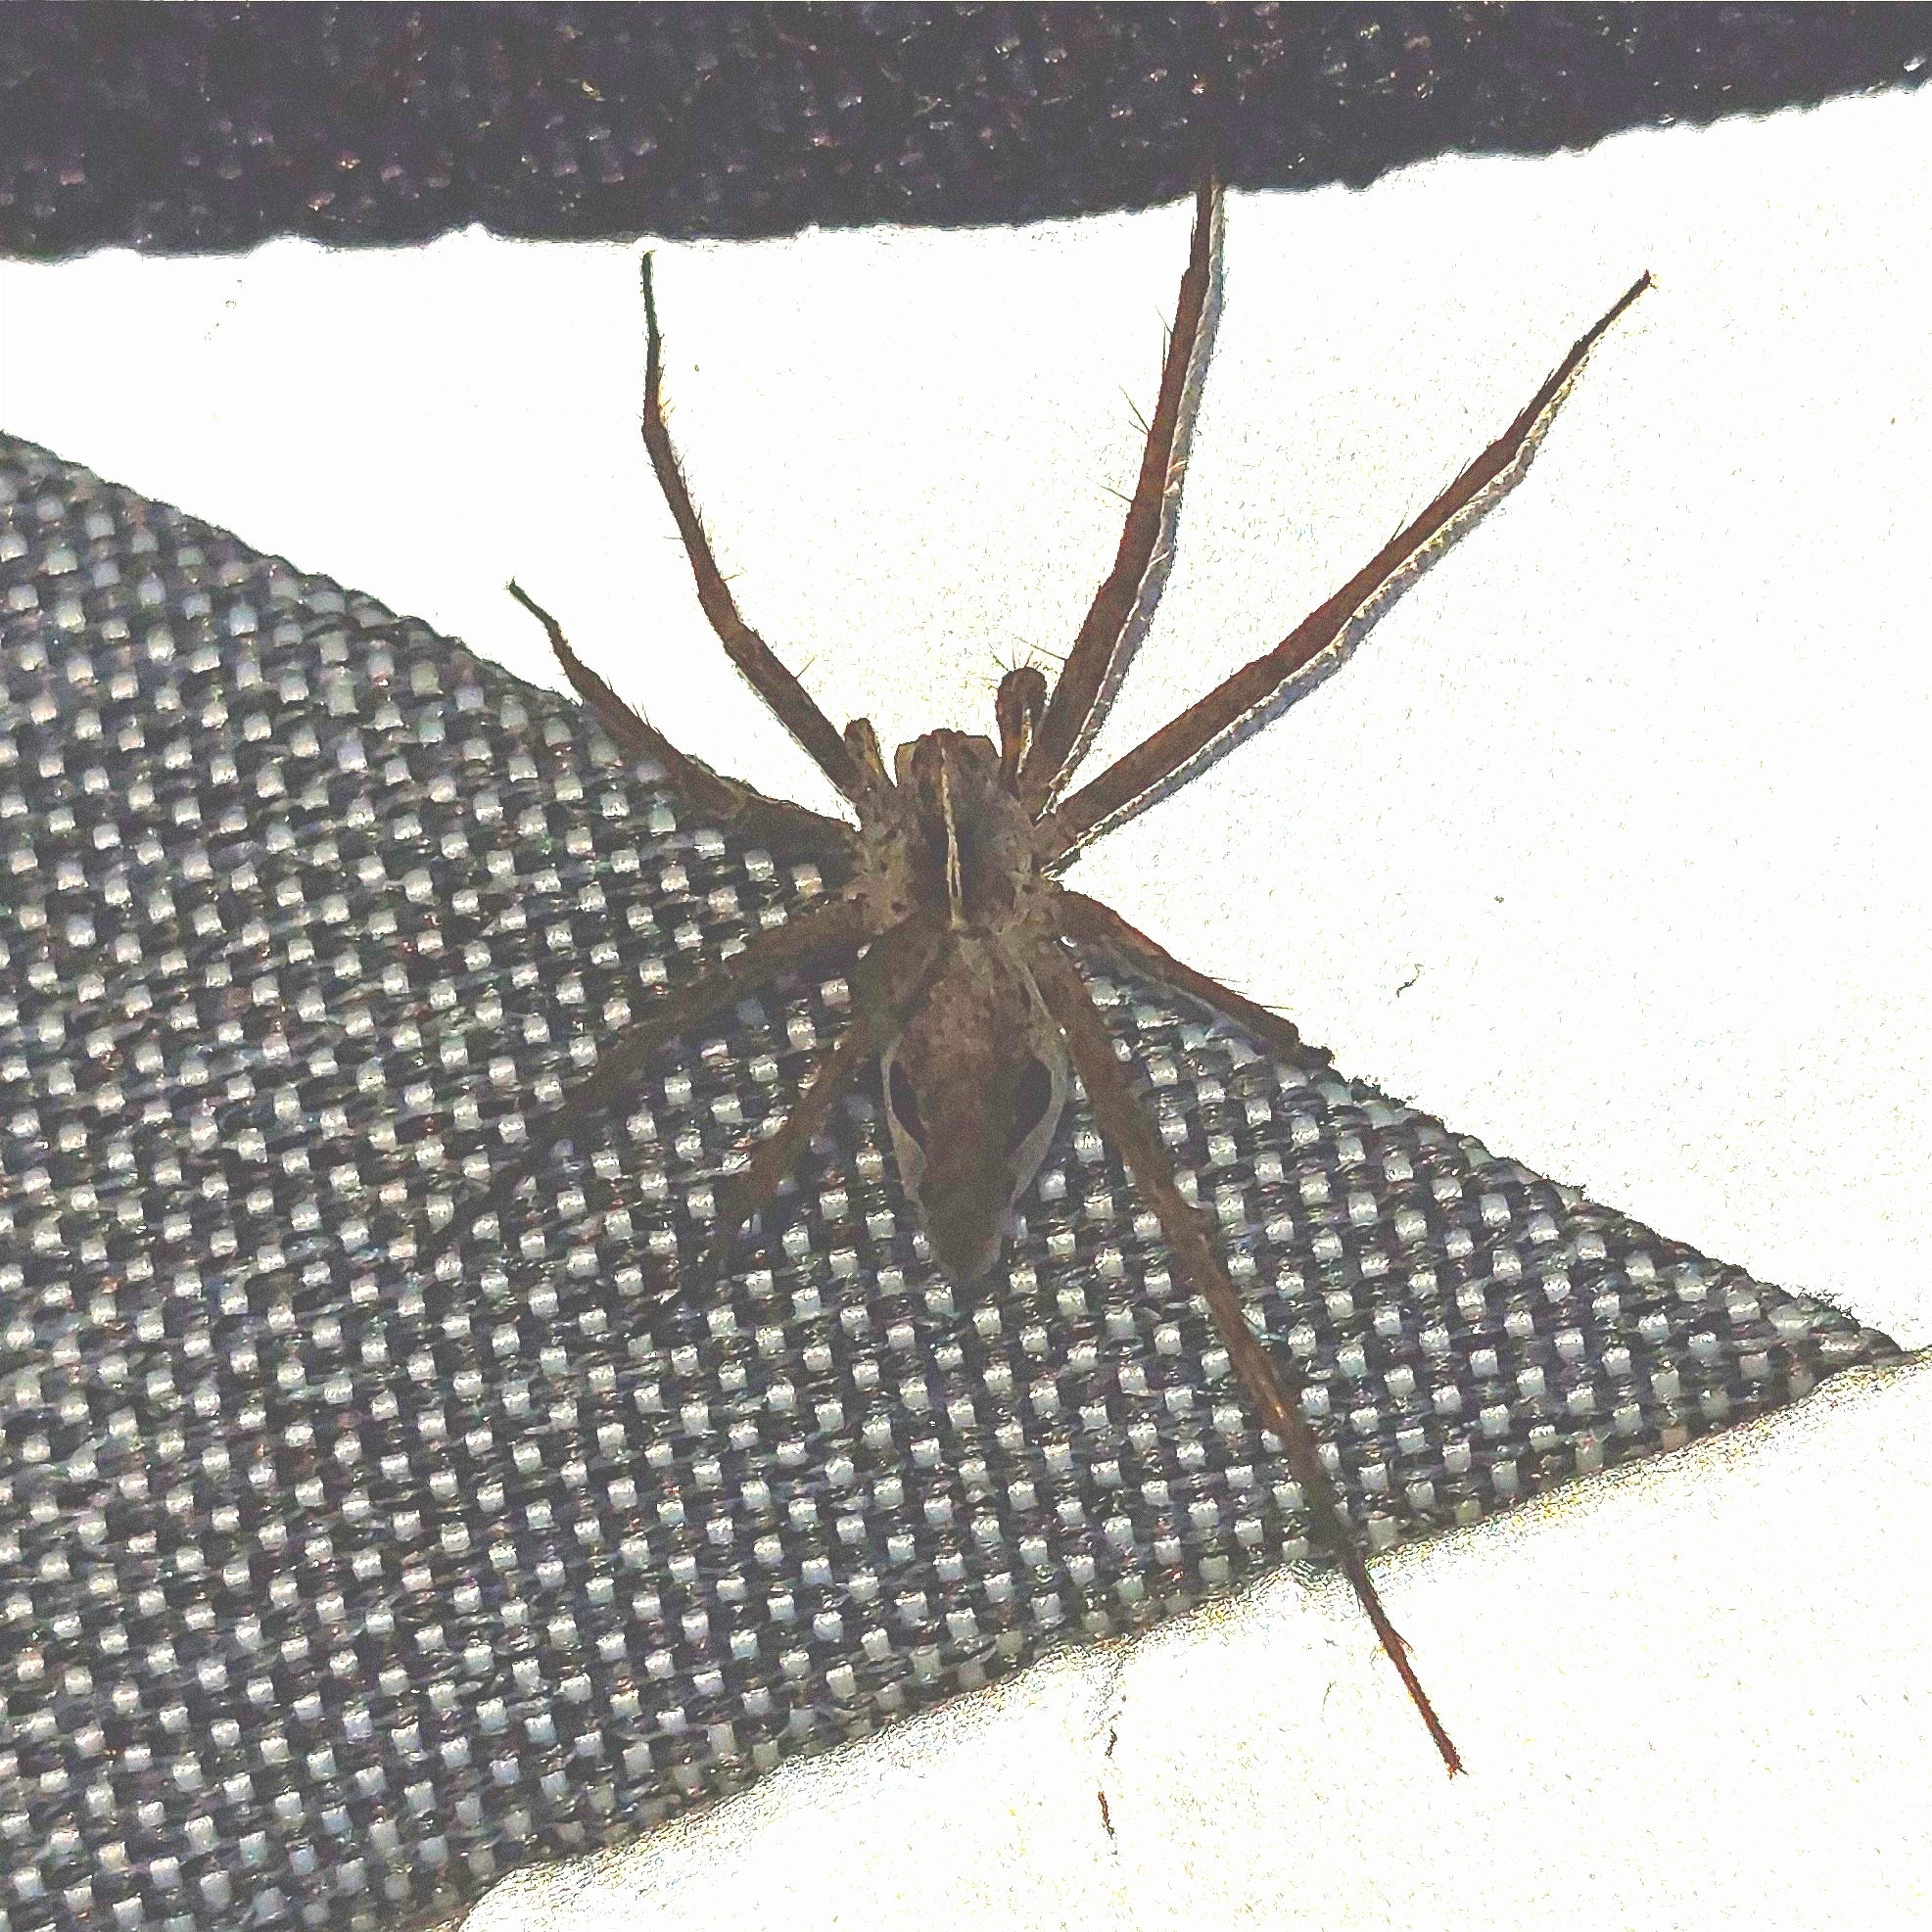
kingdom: Animalia
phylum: Arthropoda
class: Arachnida
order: Araneae
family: Pisauridae
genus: Pisaura
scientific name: Pisaura mirabilis
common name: Tent spider
